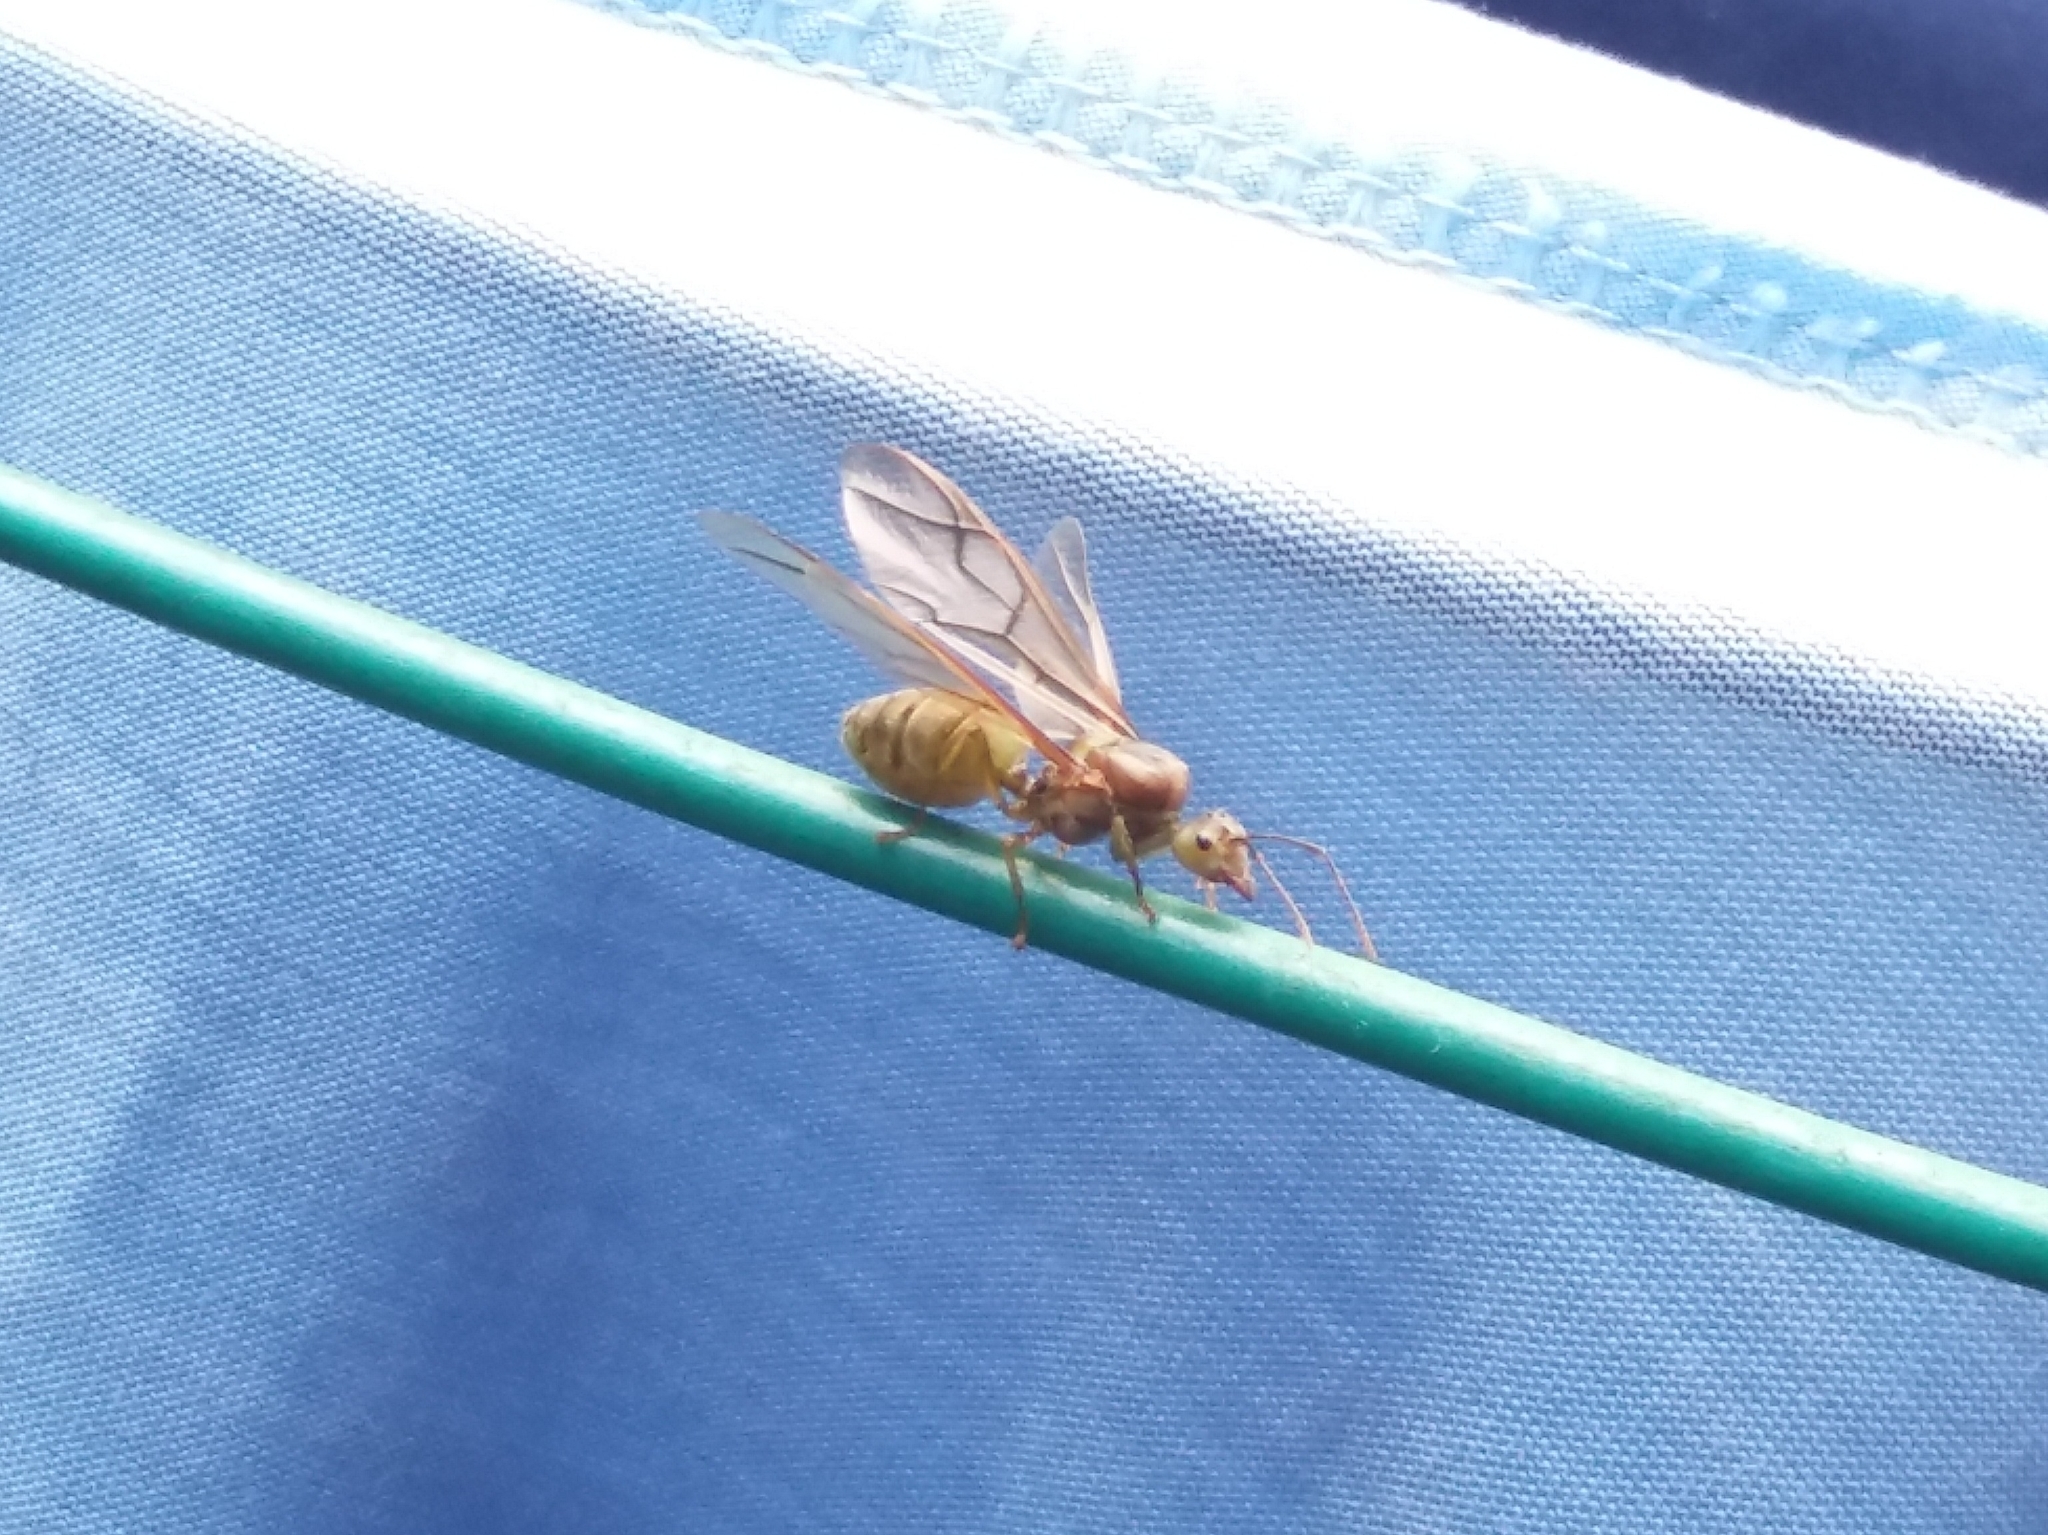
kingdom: Animalia
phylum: Arthropoda
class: Insecta
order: Hymenoptera
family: Formicidae
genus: Oecophylla
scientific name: Oecophylla smaragdina
